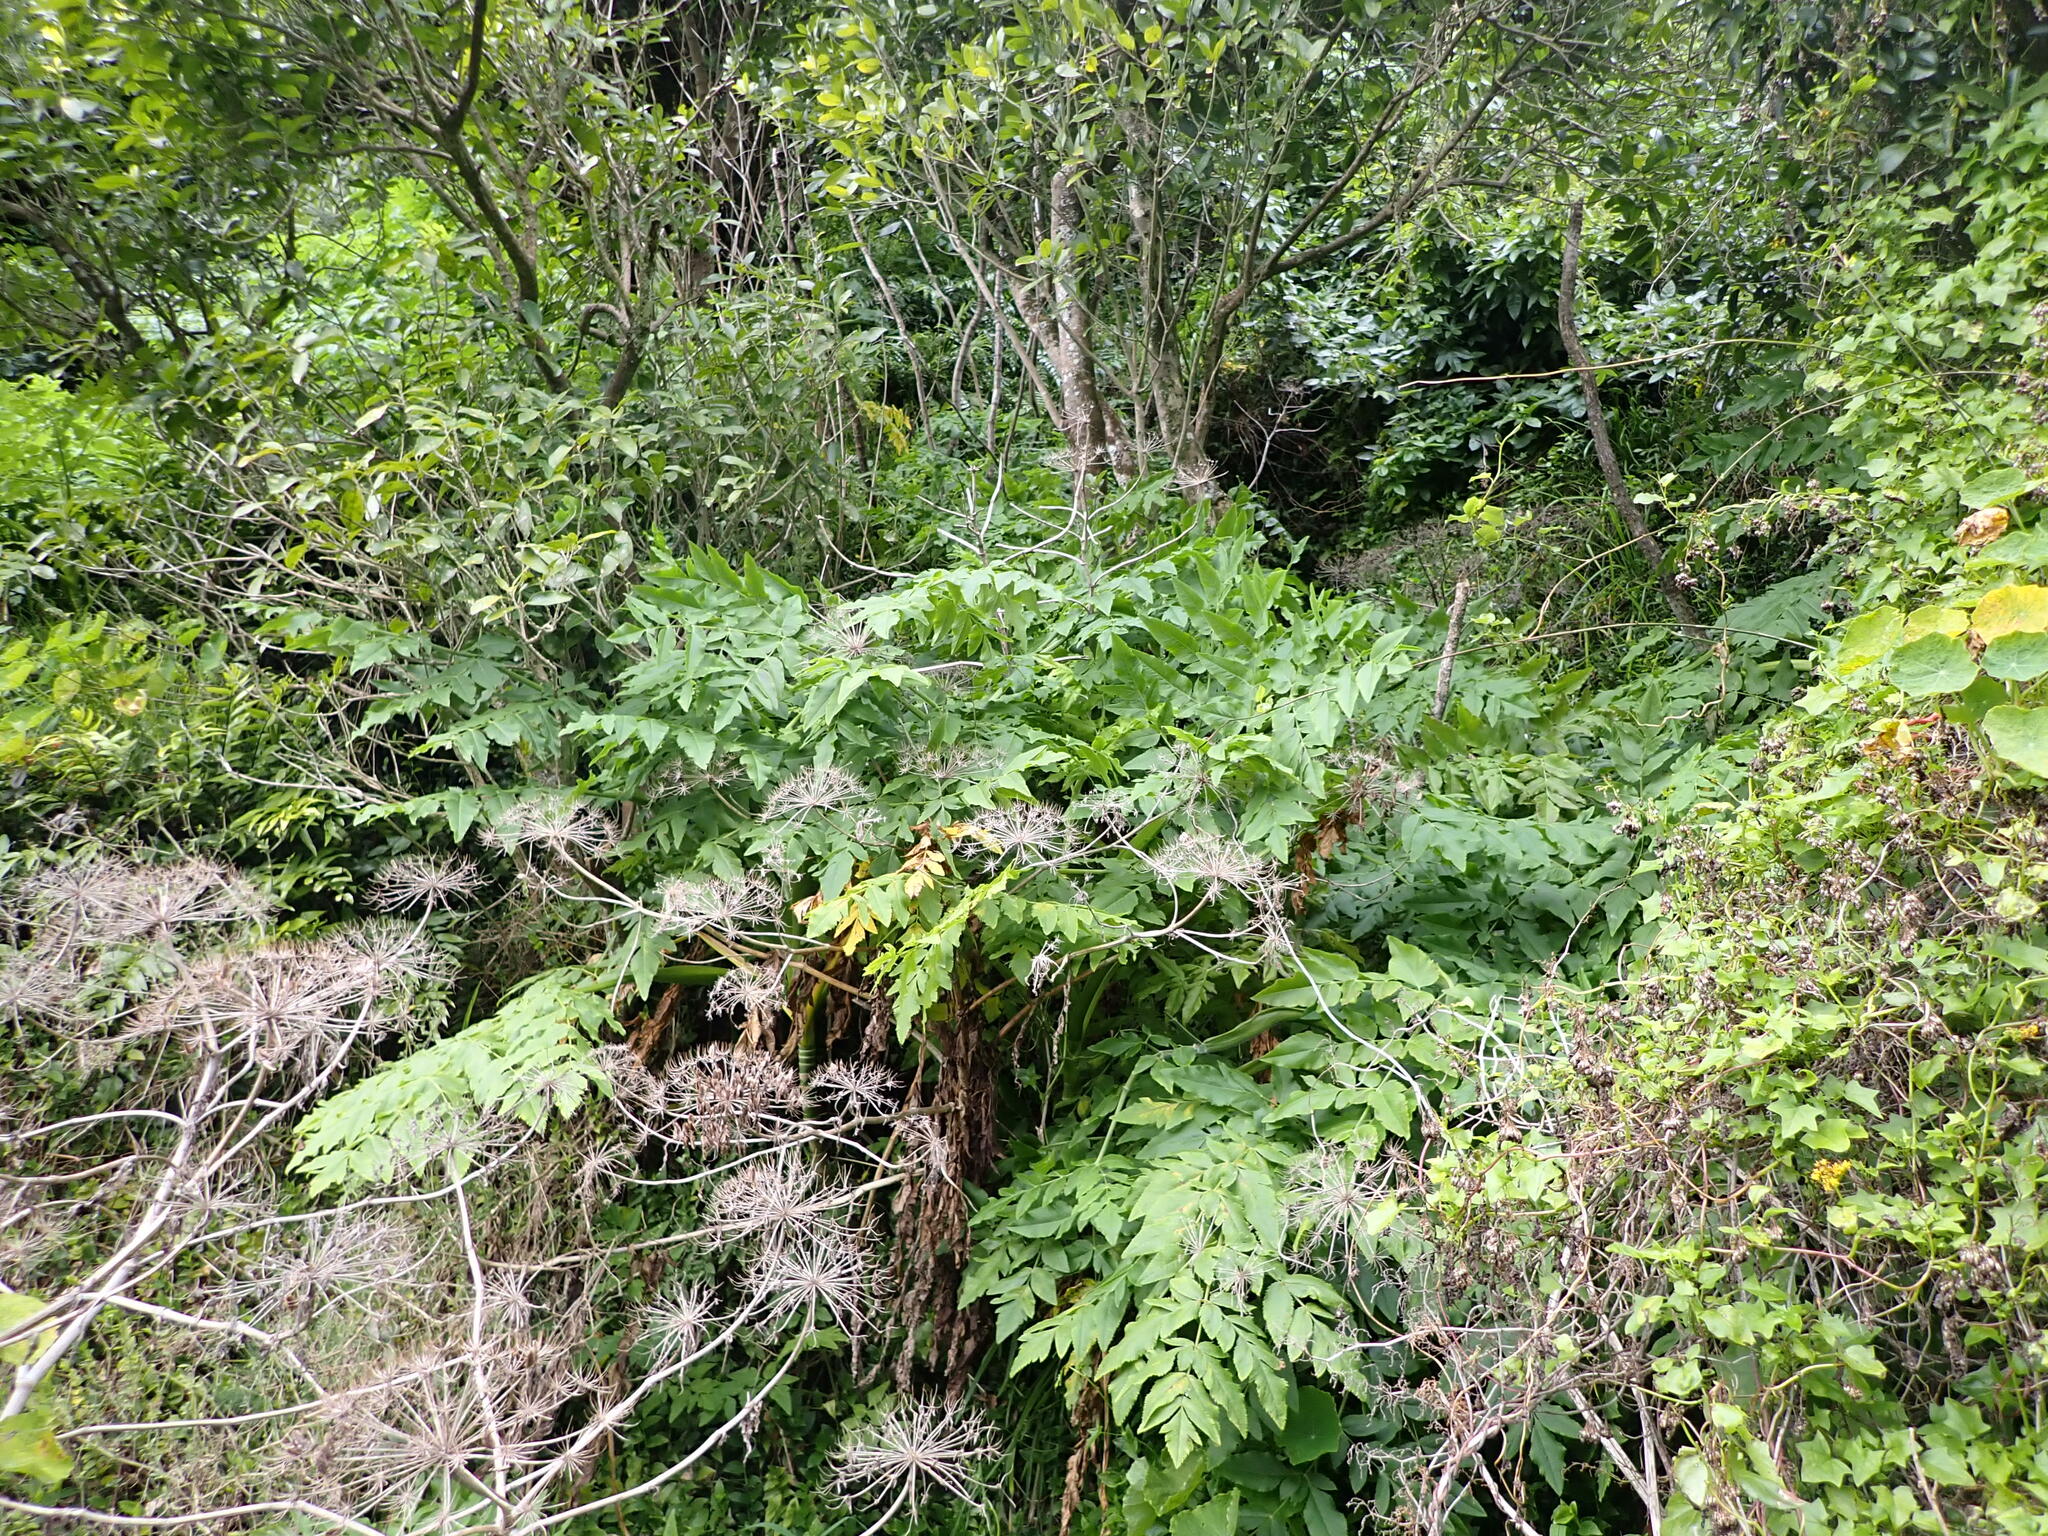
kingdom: Plantae
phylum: Tracheophyta
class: Magnoliopsida
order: Apiales
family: Apiaceae
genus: Daucus
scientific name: Daucus decipiens
